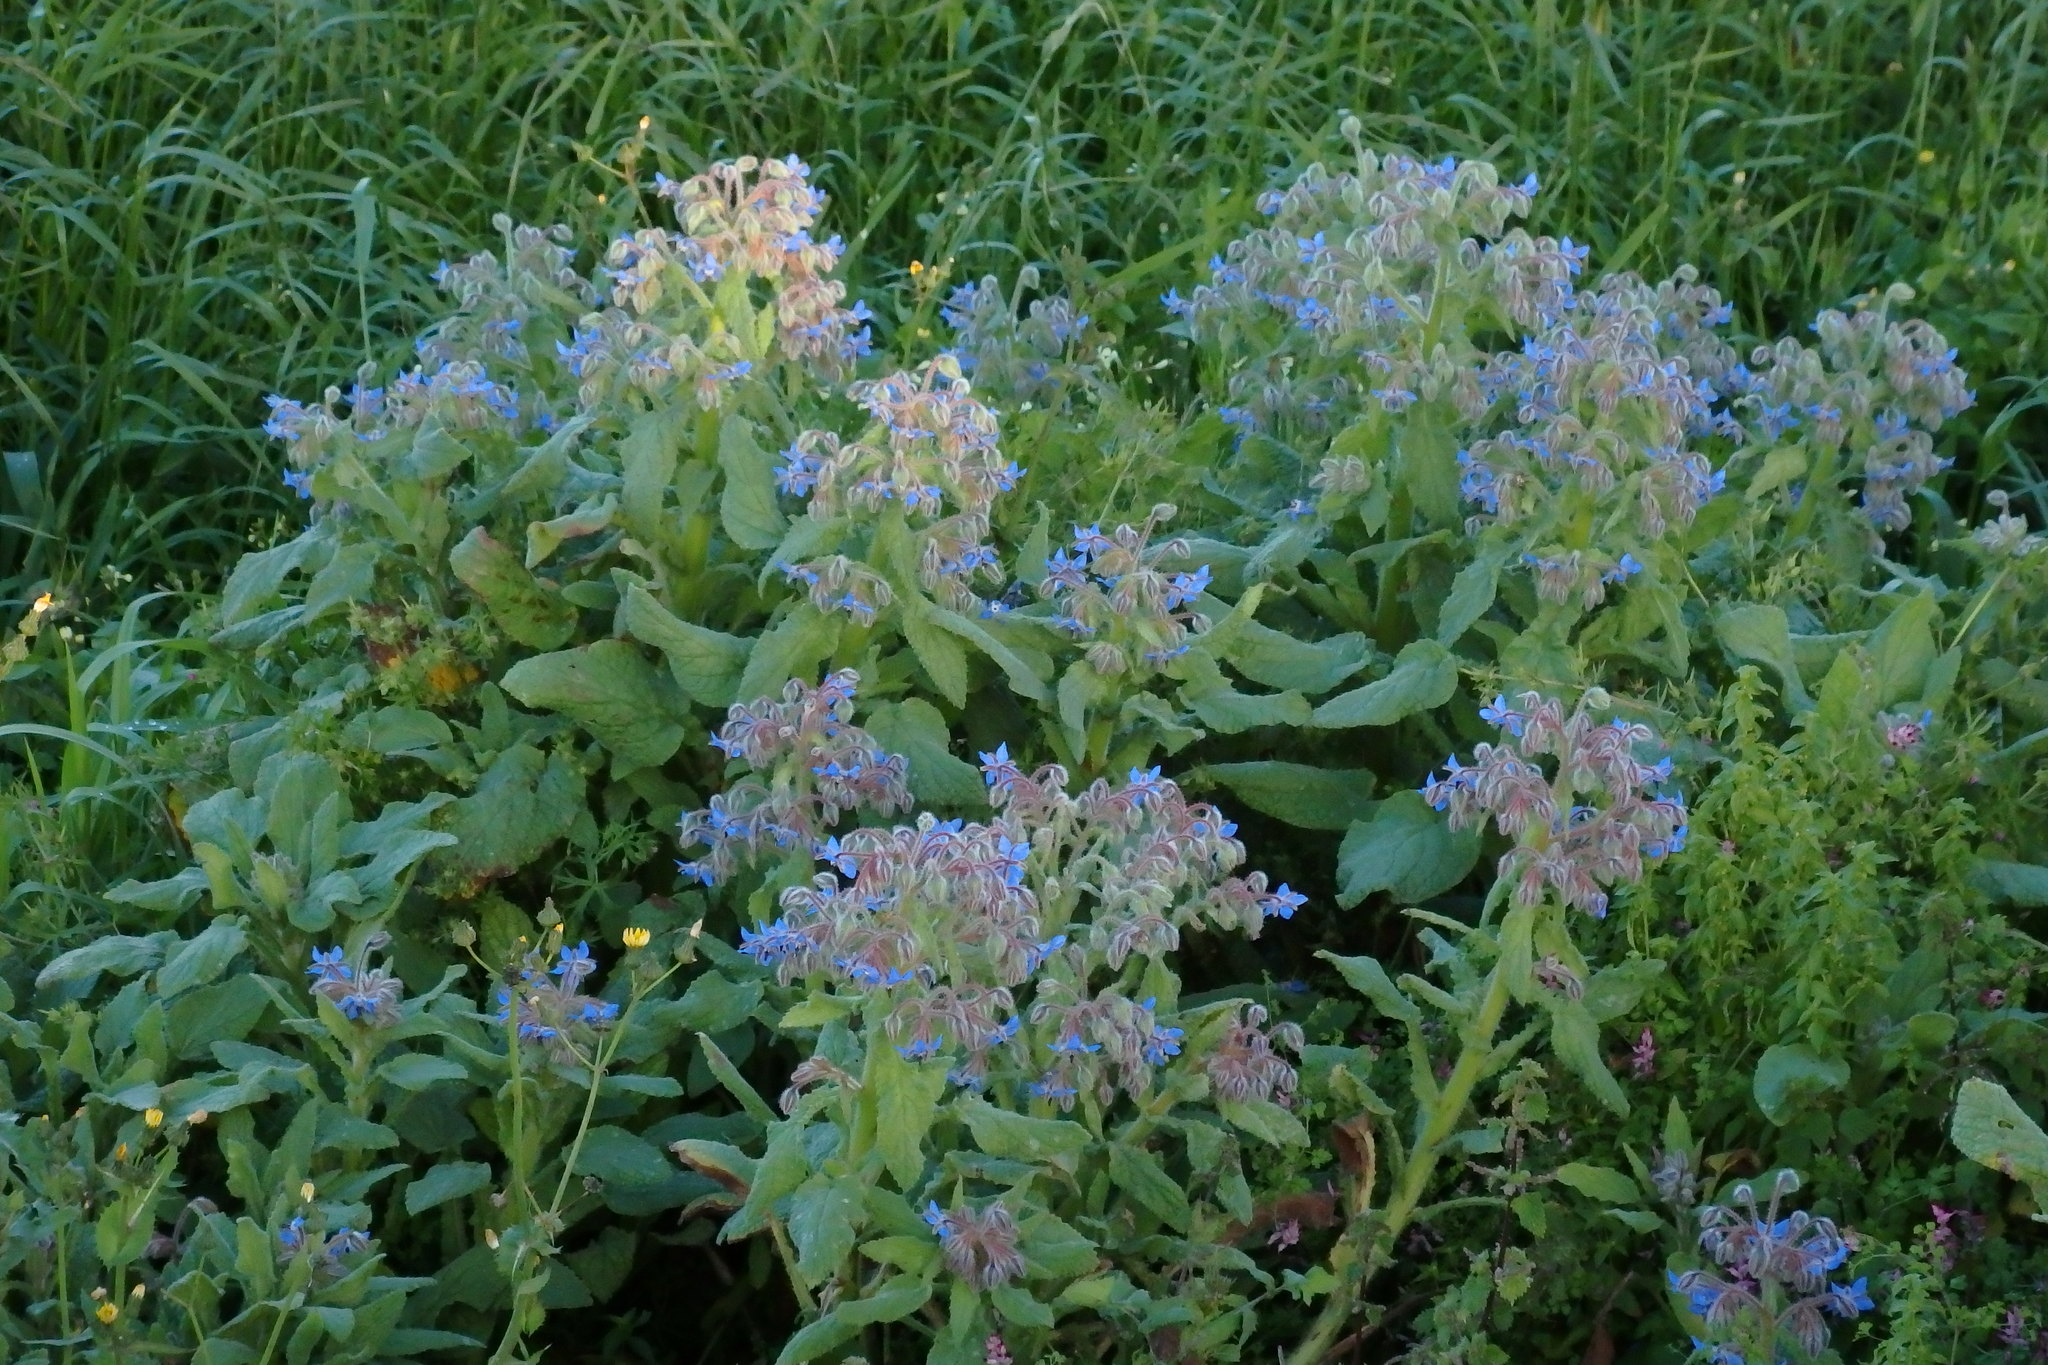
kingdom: Plantae
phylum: Tracheophyta
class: Magnoliopsida
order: Boraginales
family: Boraginaceae
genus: Borago
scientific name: Borago officinalis
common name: Borage
